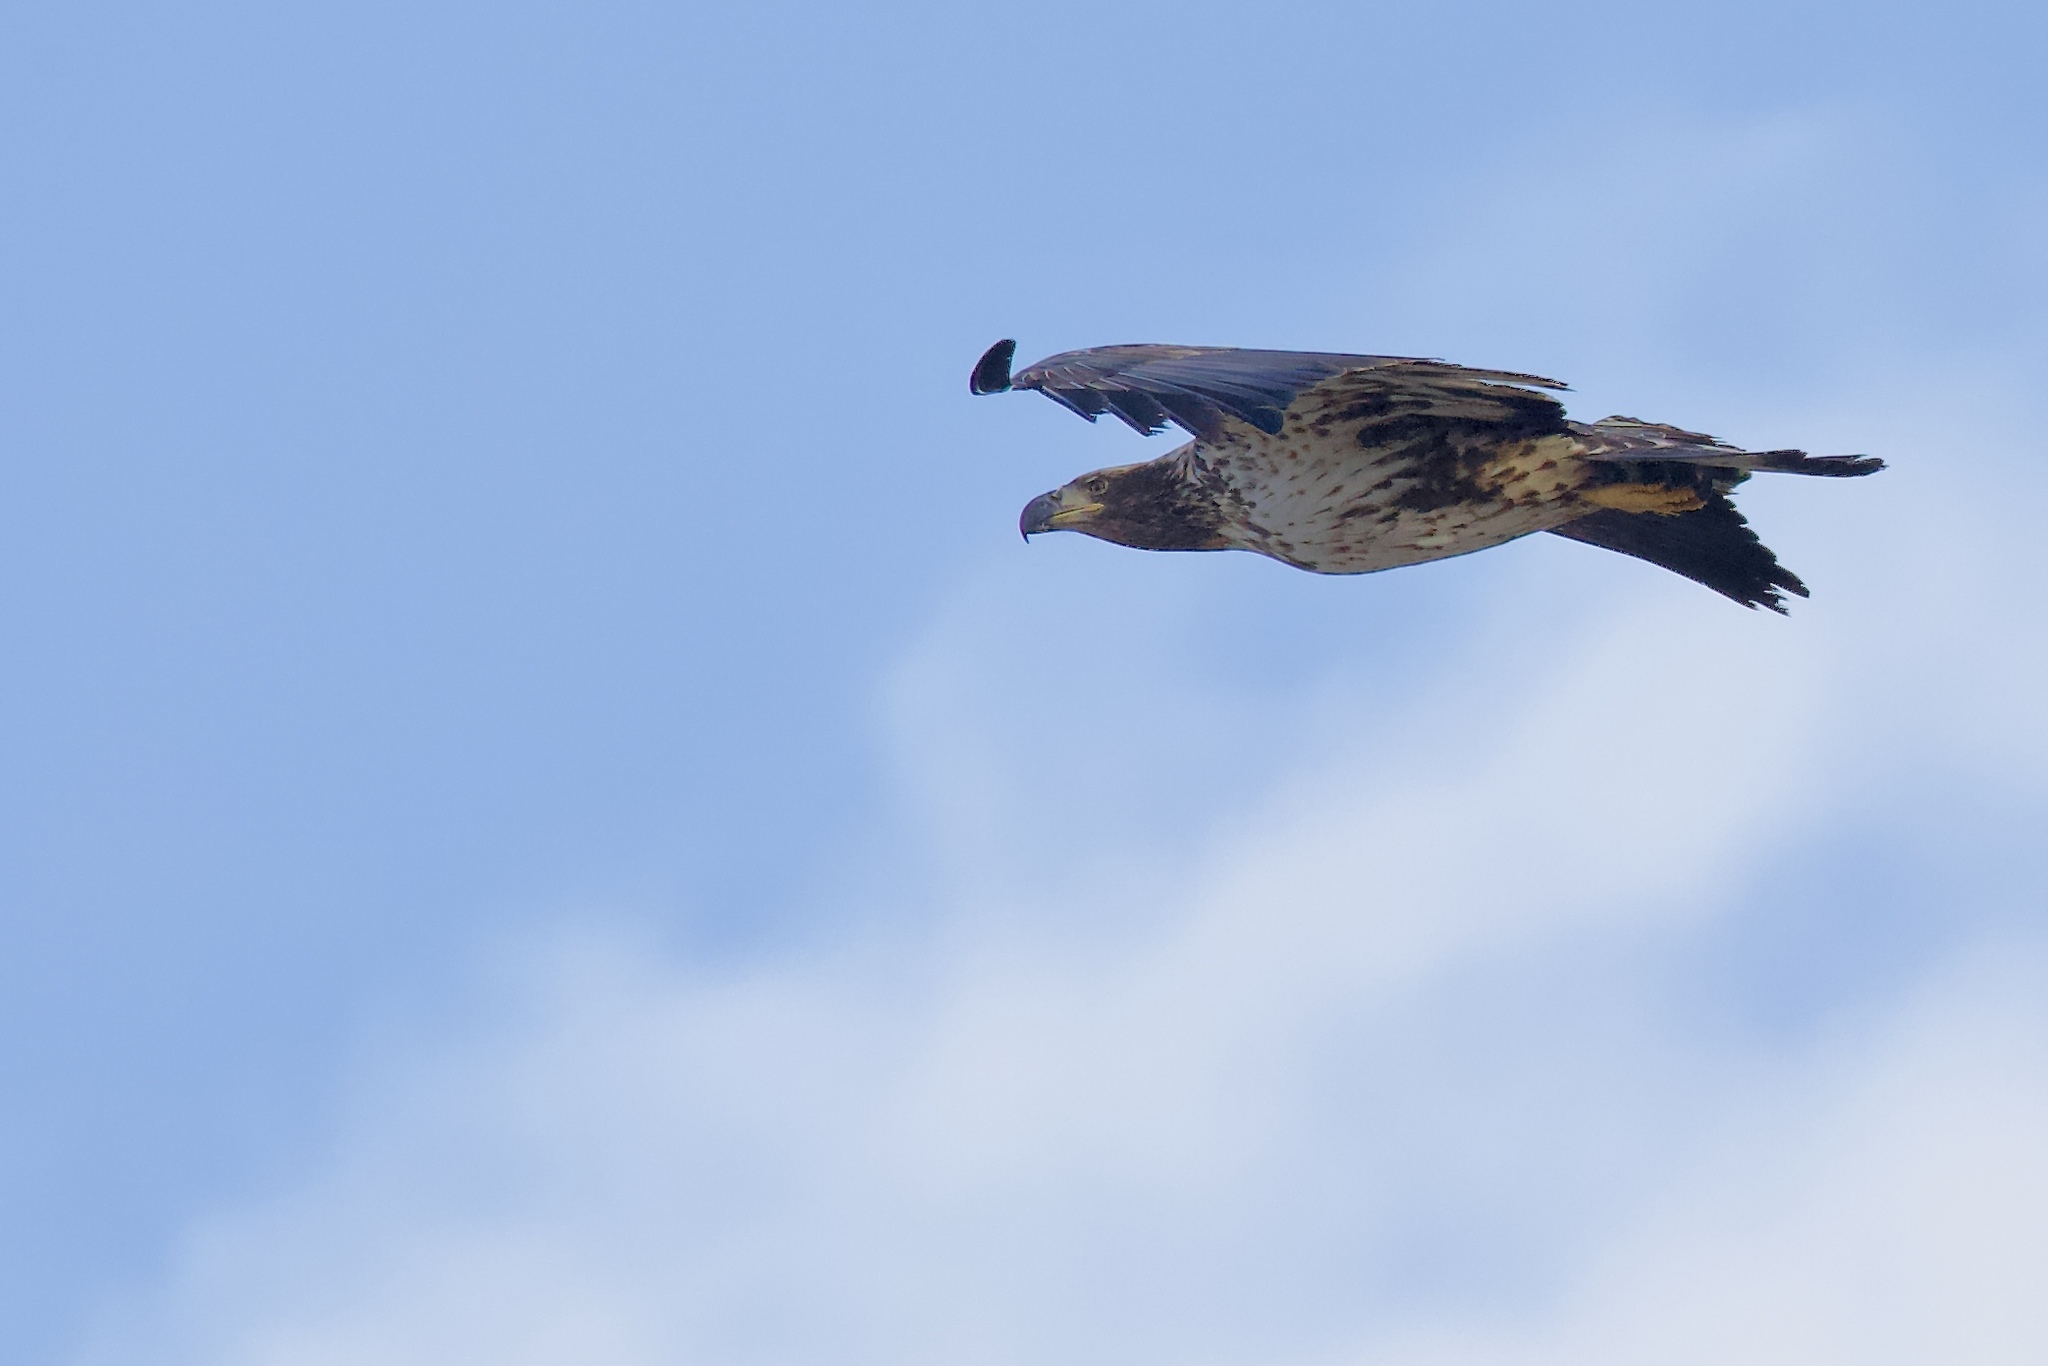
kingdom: Animalia
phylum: Chordata
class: Aves
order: Accipitriformes
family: Accipitridae
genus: Haliaeetus
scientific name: Haliaeetus leucocephalus
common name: Bald eagle
